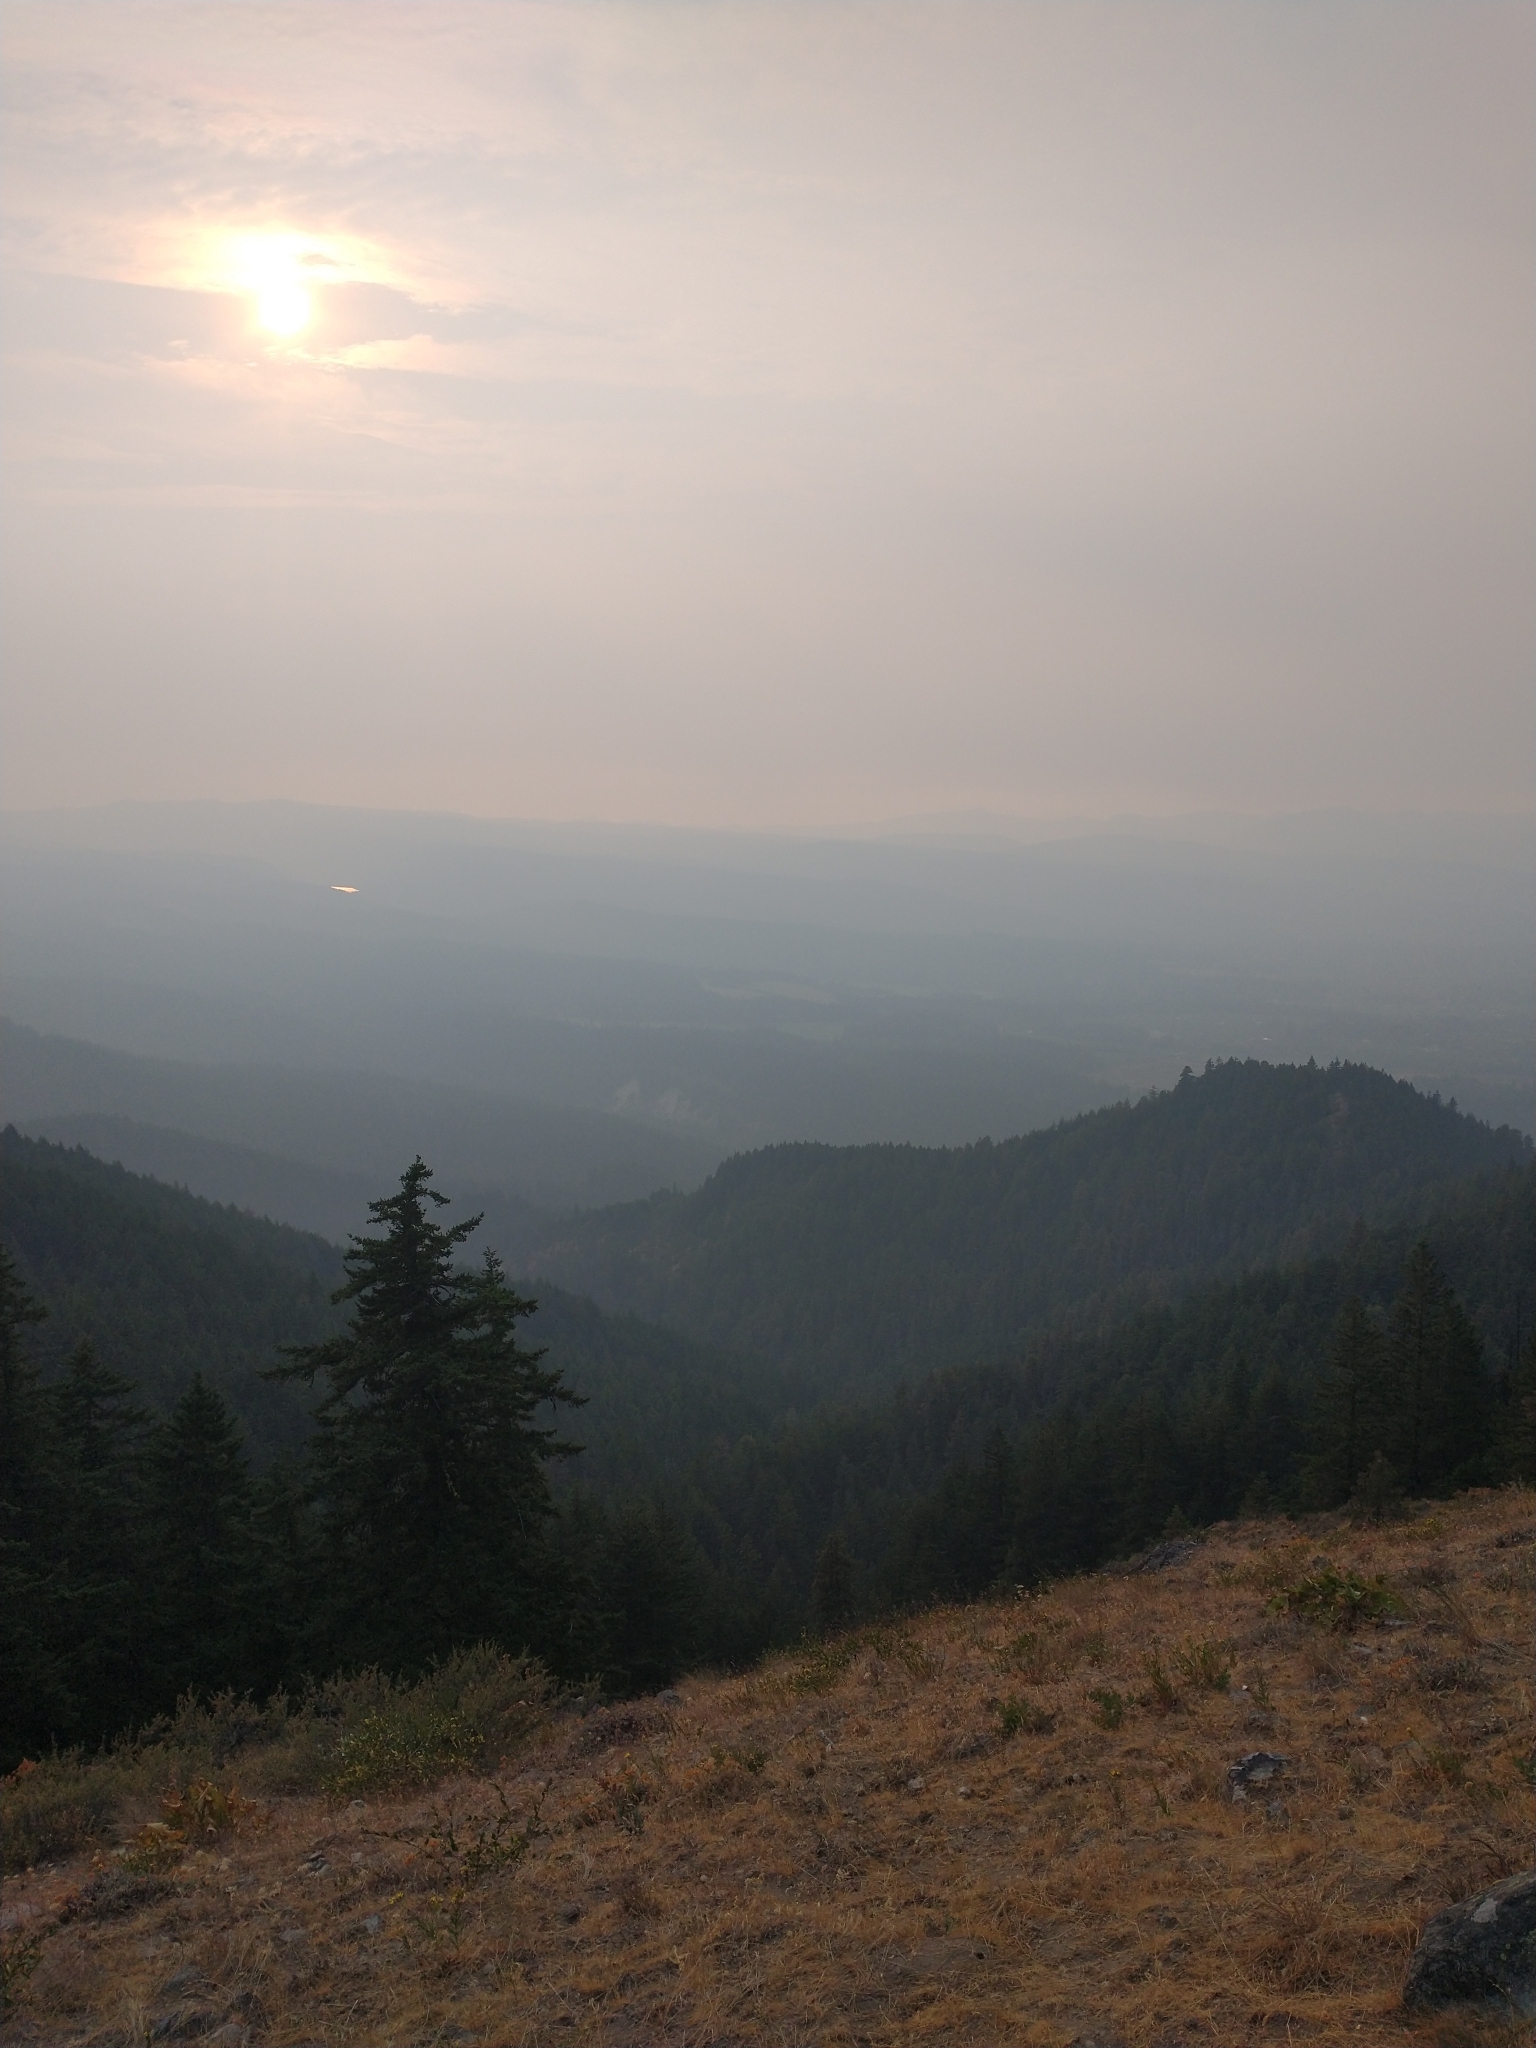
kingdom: Plantae
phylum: Tracheophyta
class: Pinopsida
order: Pinales
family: Pinaceae
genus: Pseudotsuga
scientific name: Pseudotsuga menziesii
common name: Douglas fir
